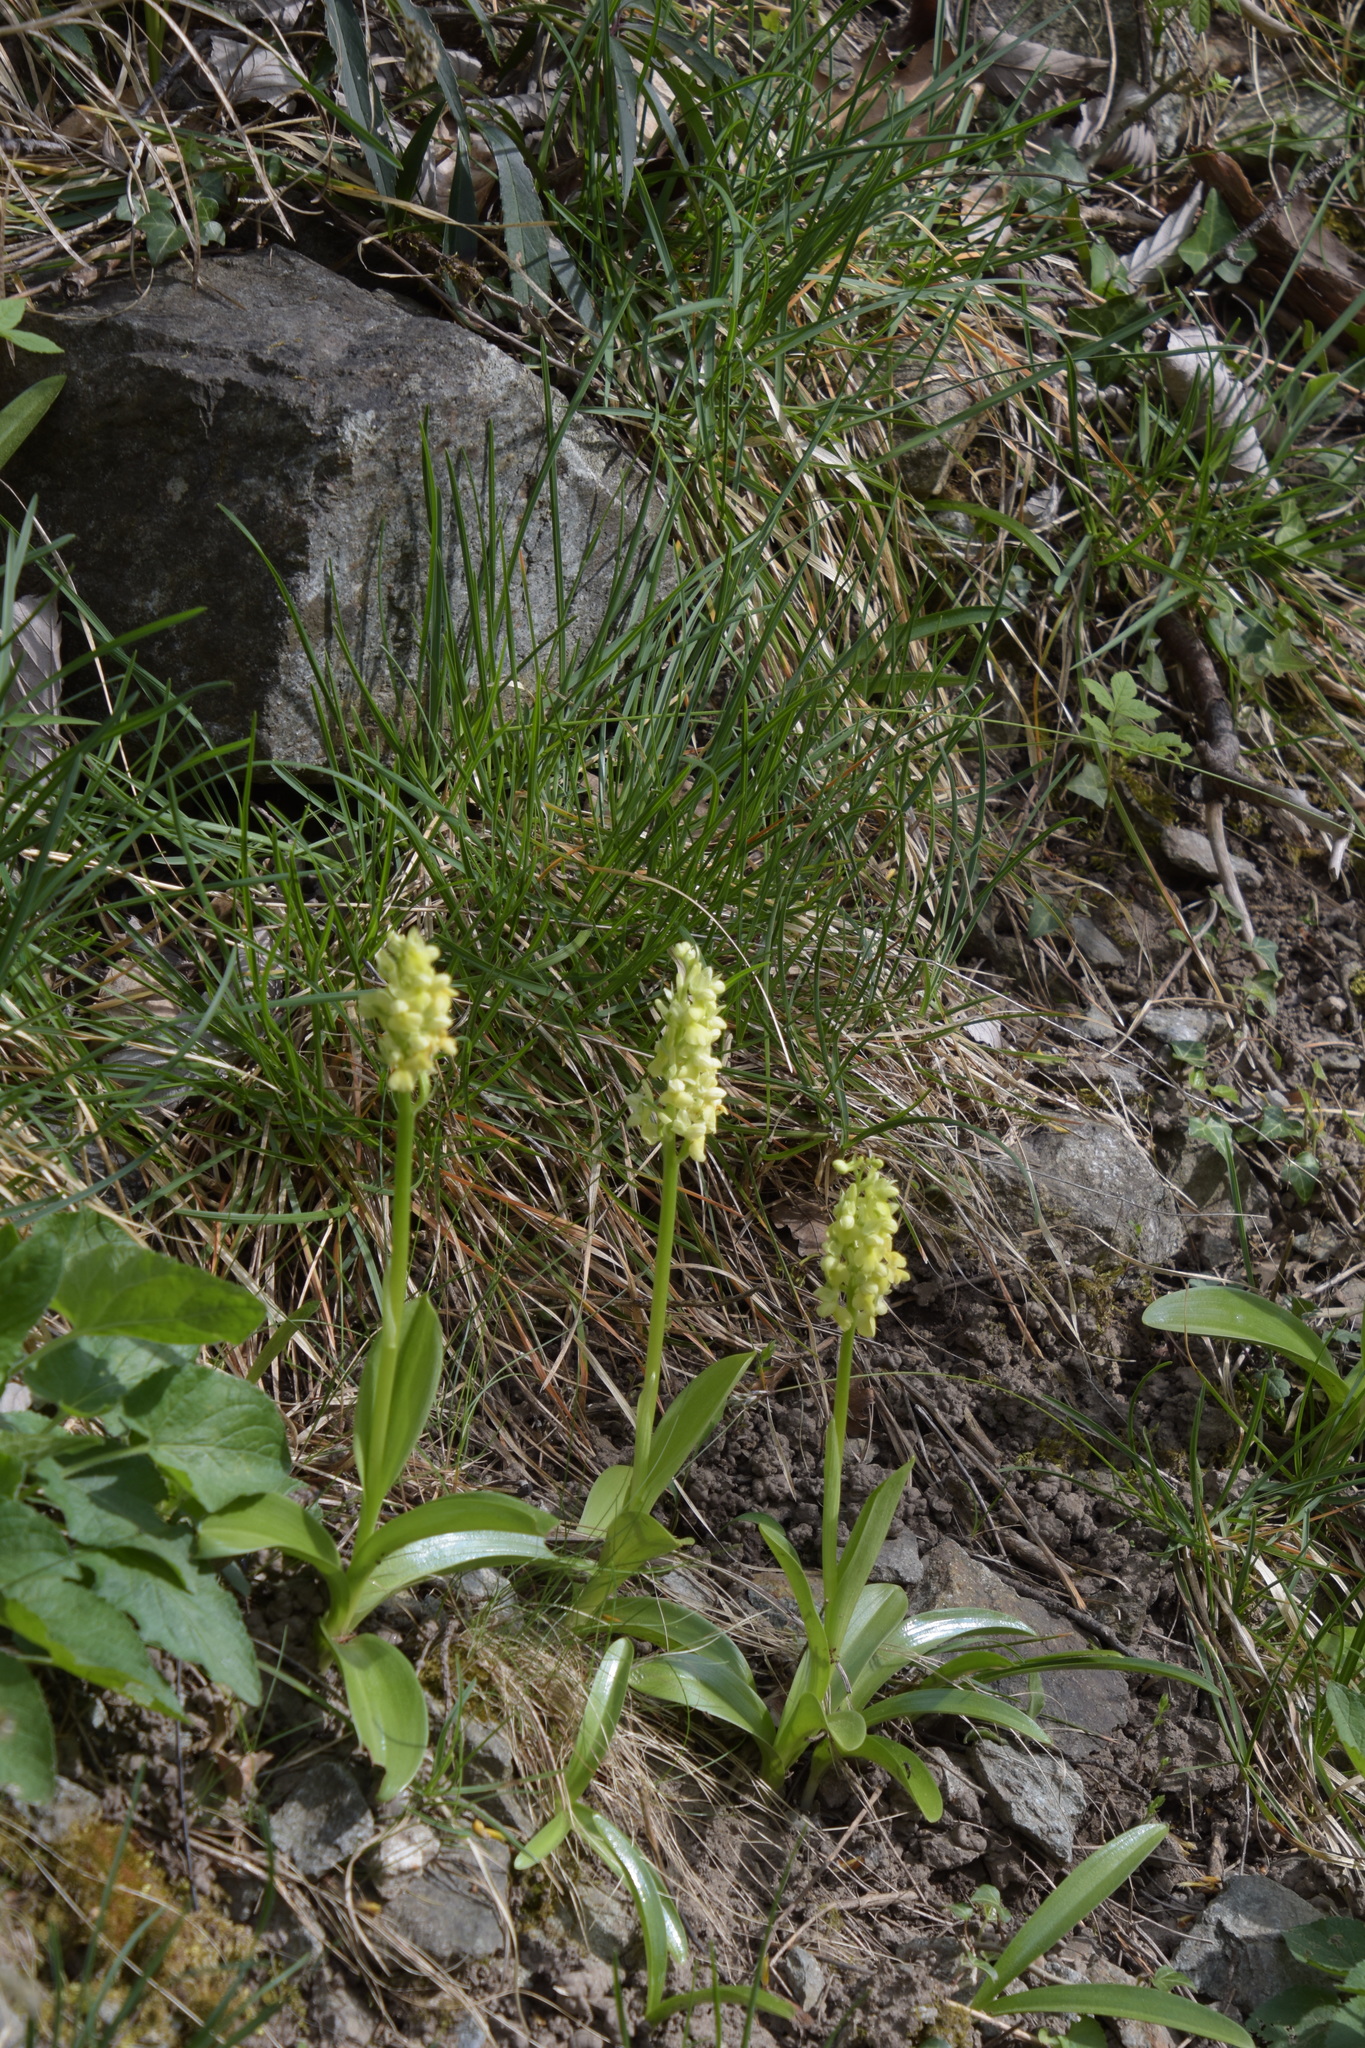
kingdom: Plantae
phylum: Tracheophyta
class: Liliopsida
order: Asparagales
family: Orchidaceae
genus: Orchis
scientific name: Orchis pallens
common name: Pale-flowered orchid
